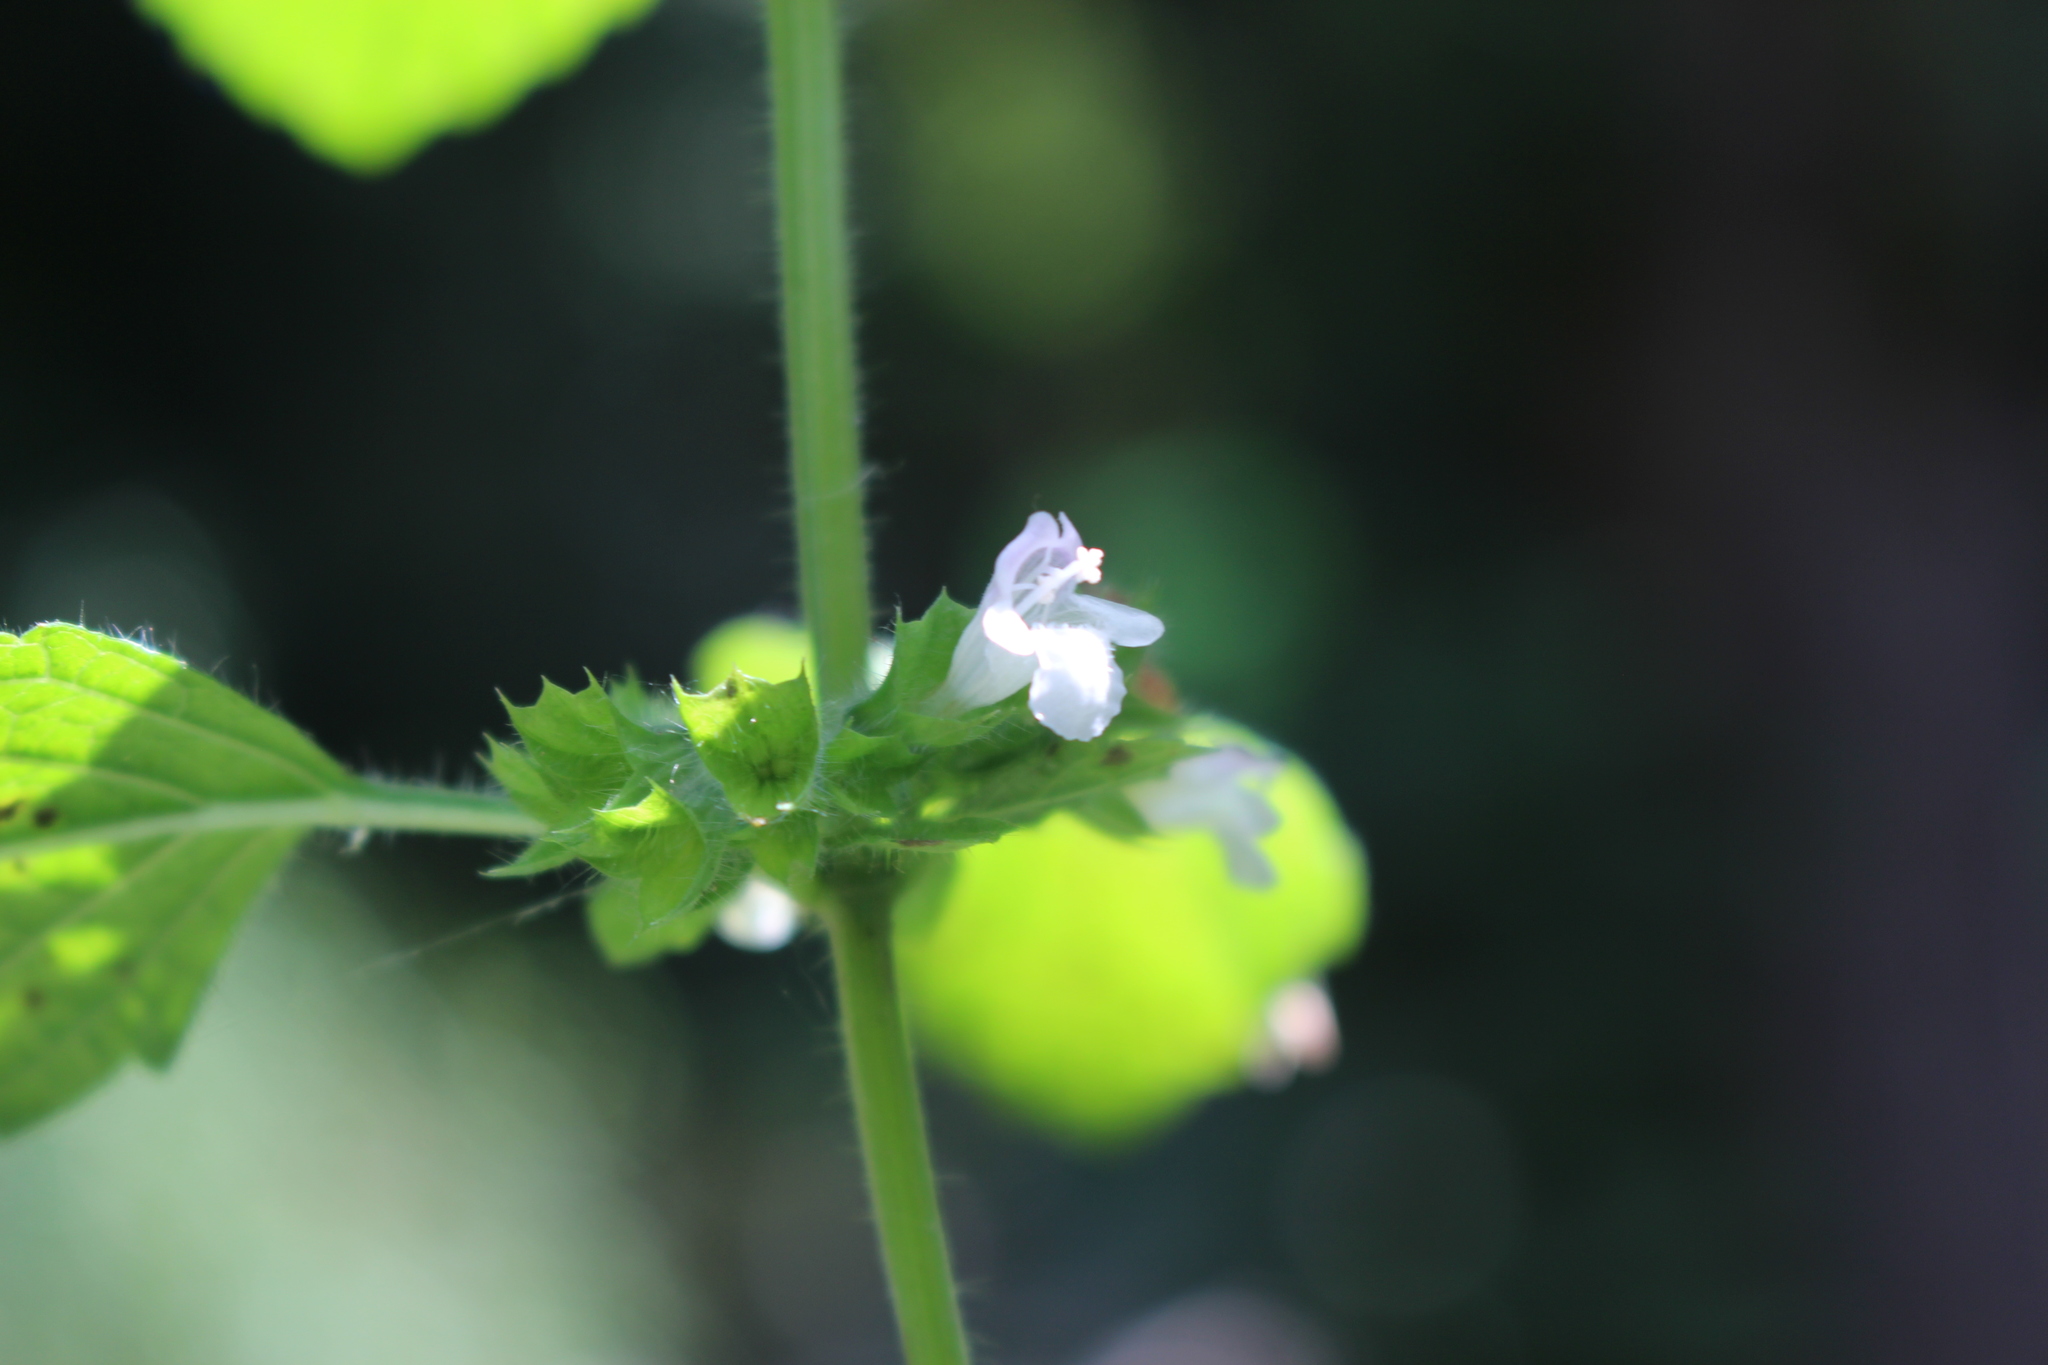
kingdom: Plantae
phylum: Tracheophyta
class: Magnoliopsida
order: Lamiales
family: Lamiaceae
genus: Melissa
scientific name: Melissa officinalis
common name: Balm
